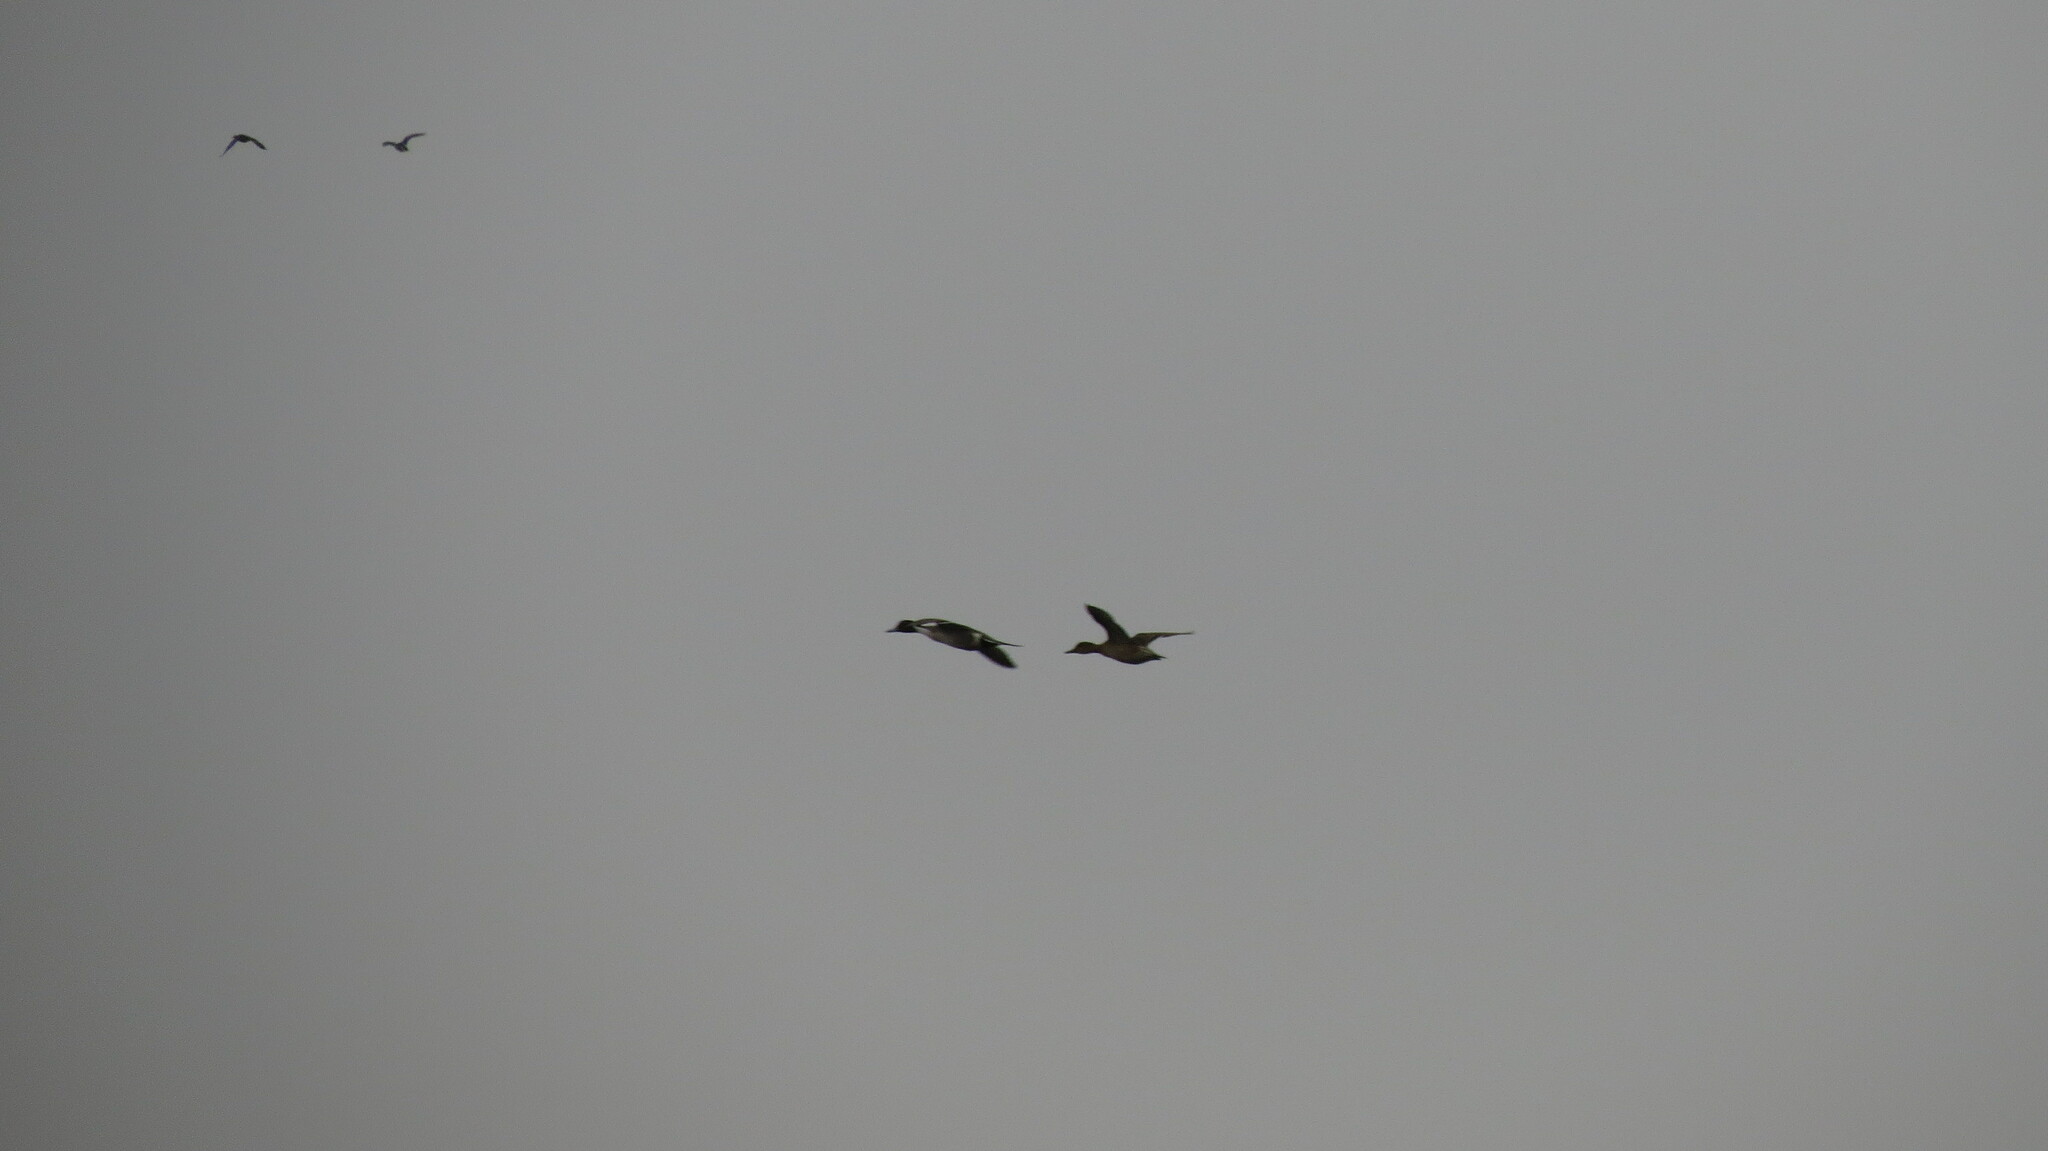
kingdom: Animalia
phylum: Chordata
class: Aves
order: Anseriformes
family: Anatidae
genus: Anas
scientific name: Anas acuta
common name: Northern pintail
